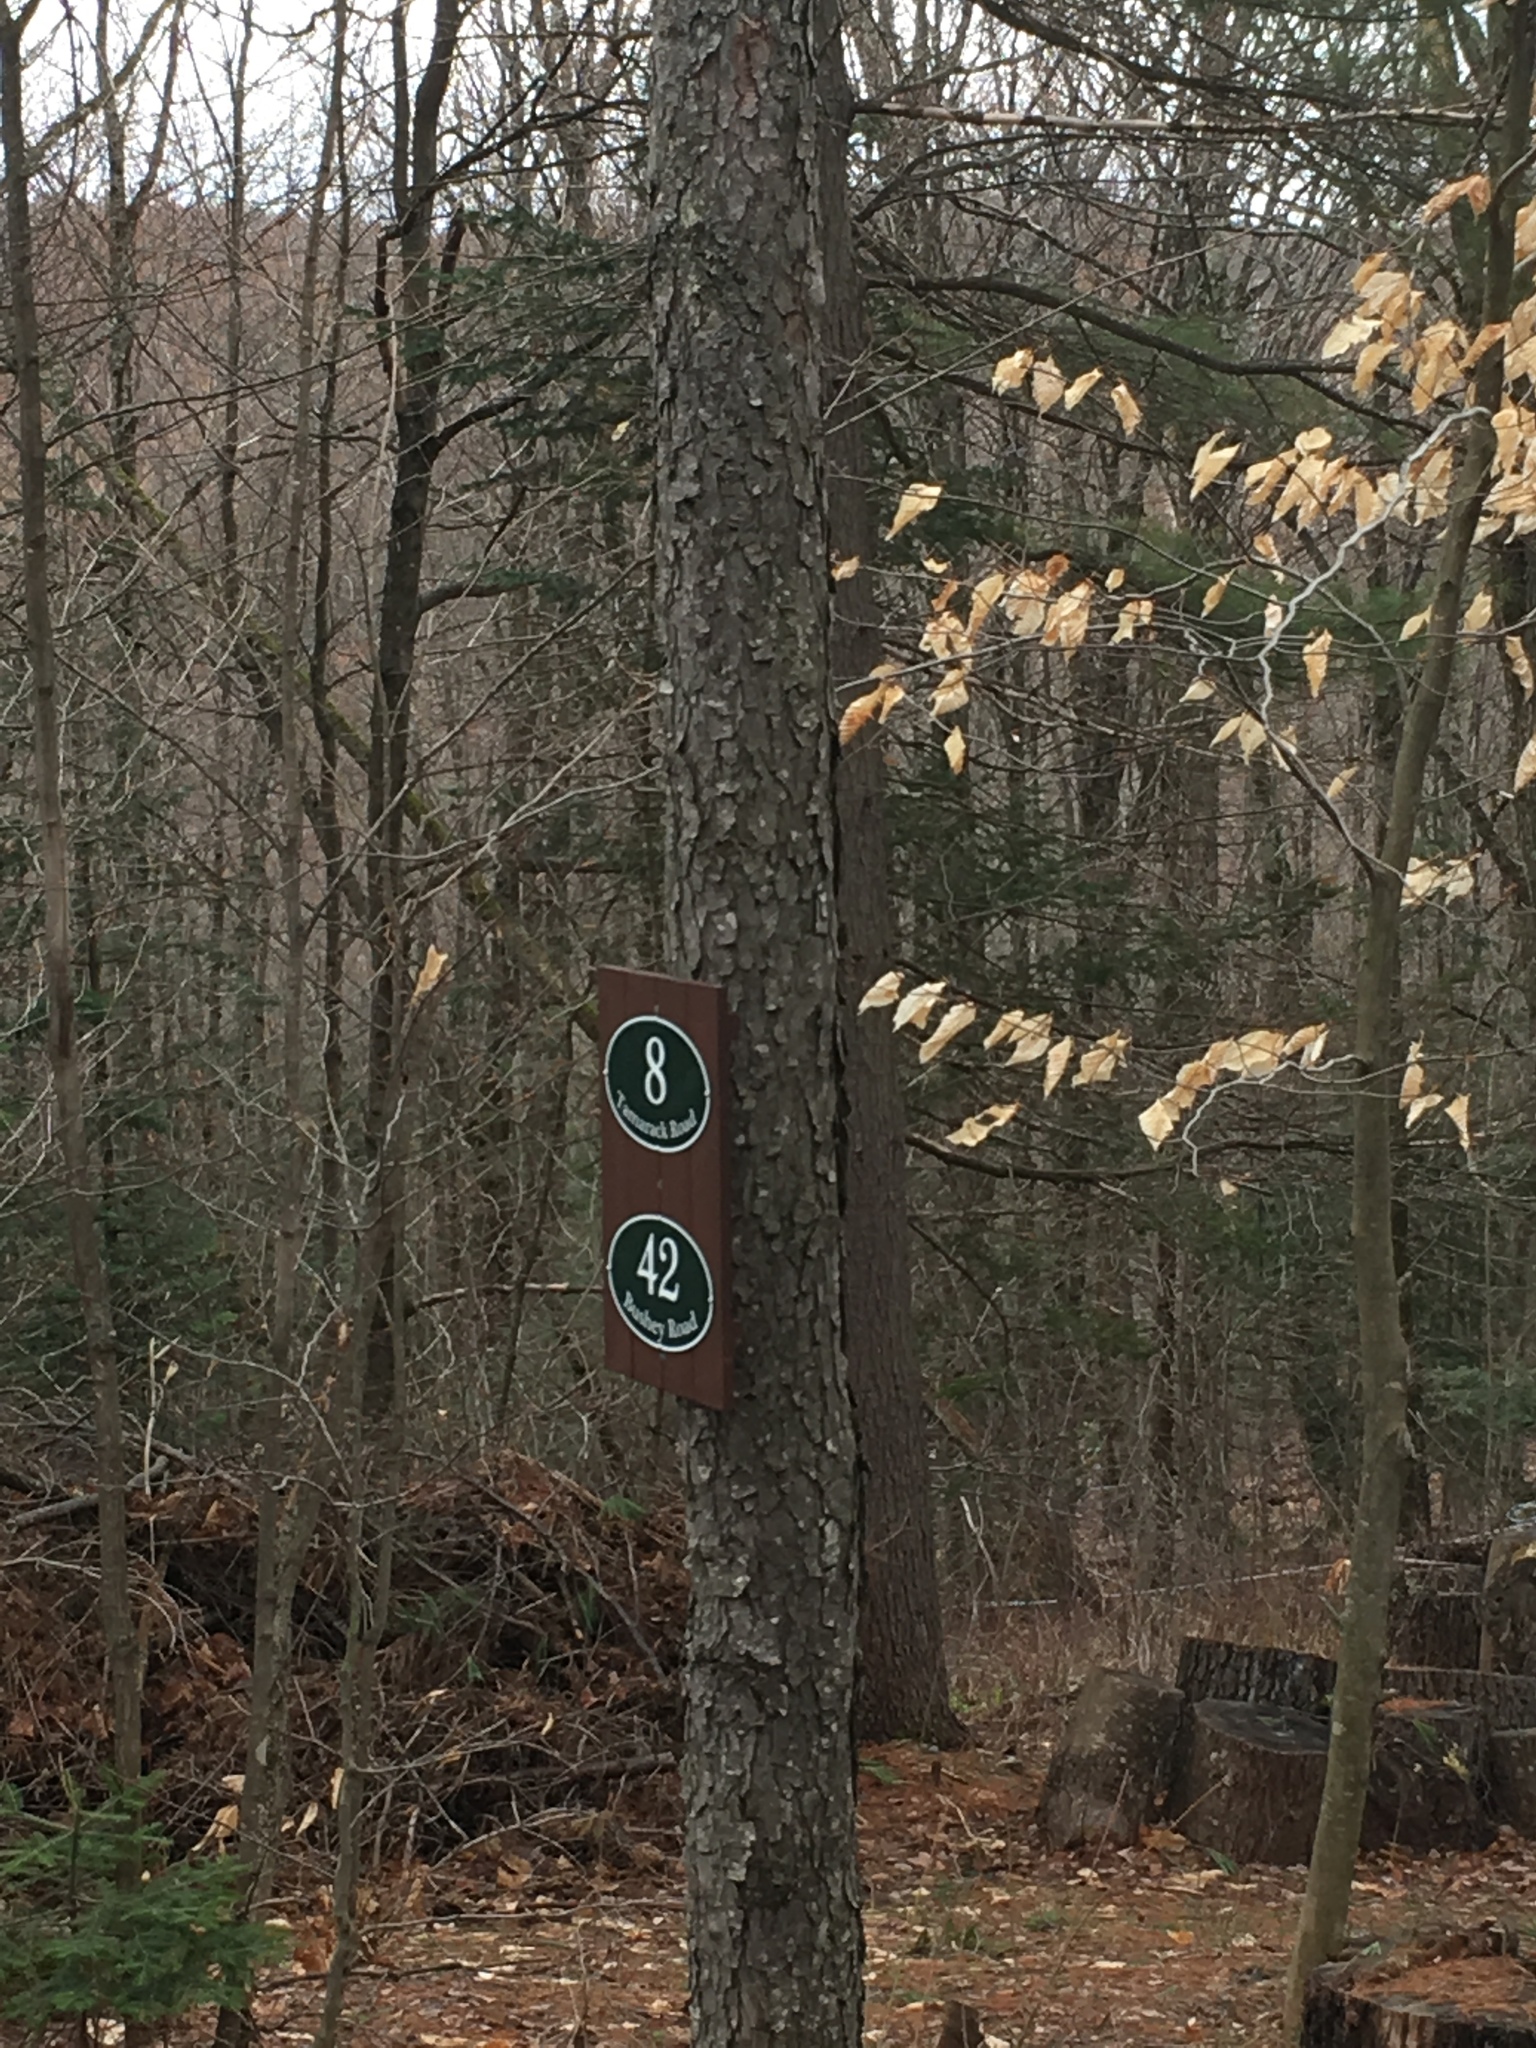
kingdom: Plantae
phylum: Tracheophyta
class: Magnoliopsida
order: Rosales
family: Rosaceae
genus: Prunus
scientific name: Prunus serotina
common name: Black cherry
